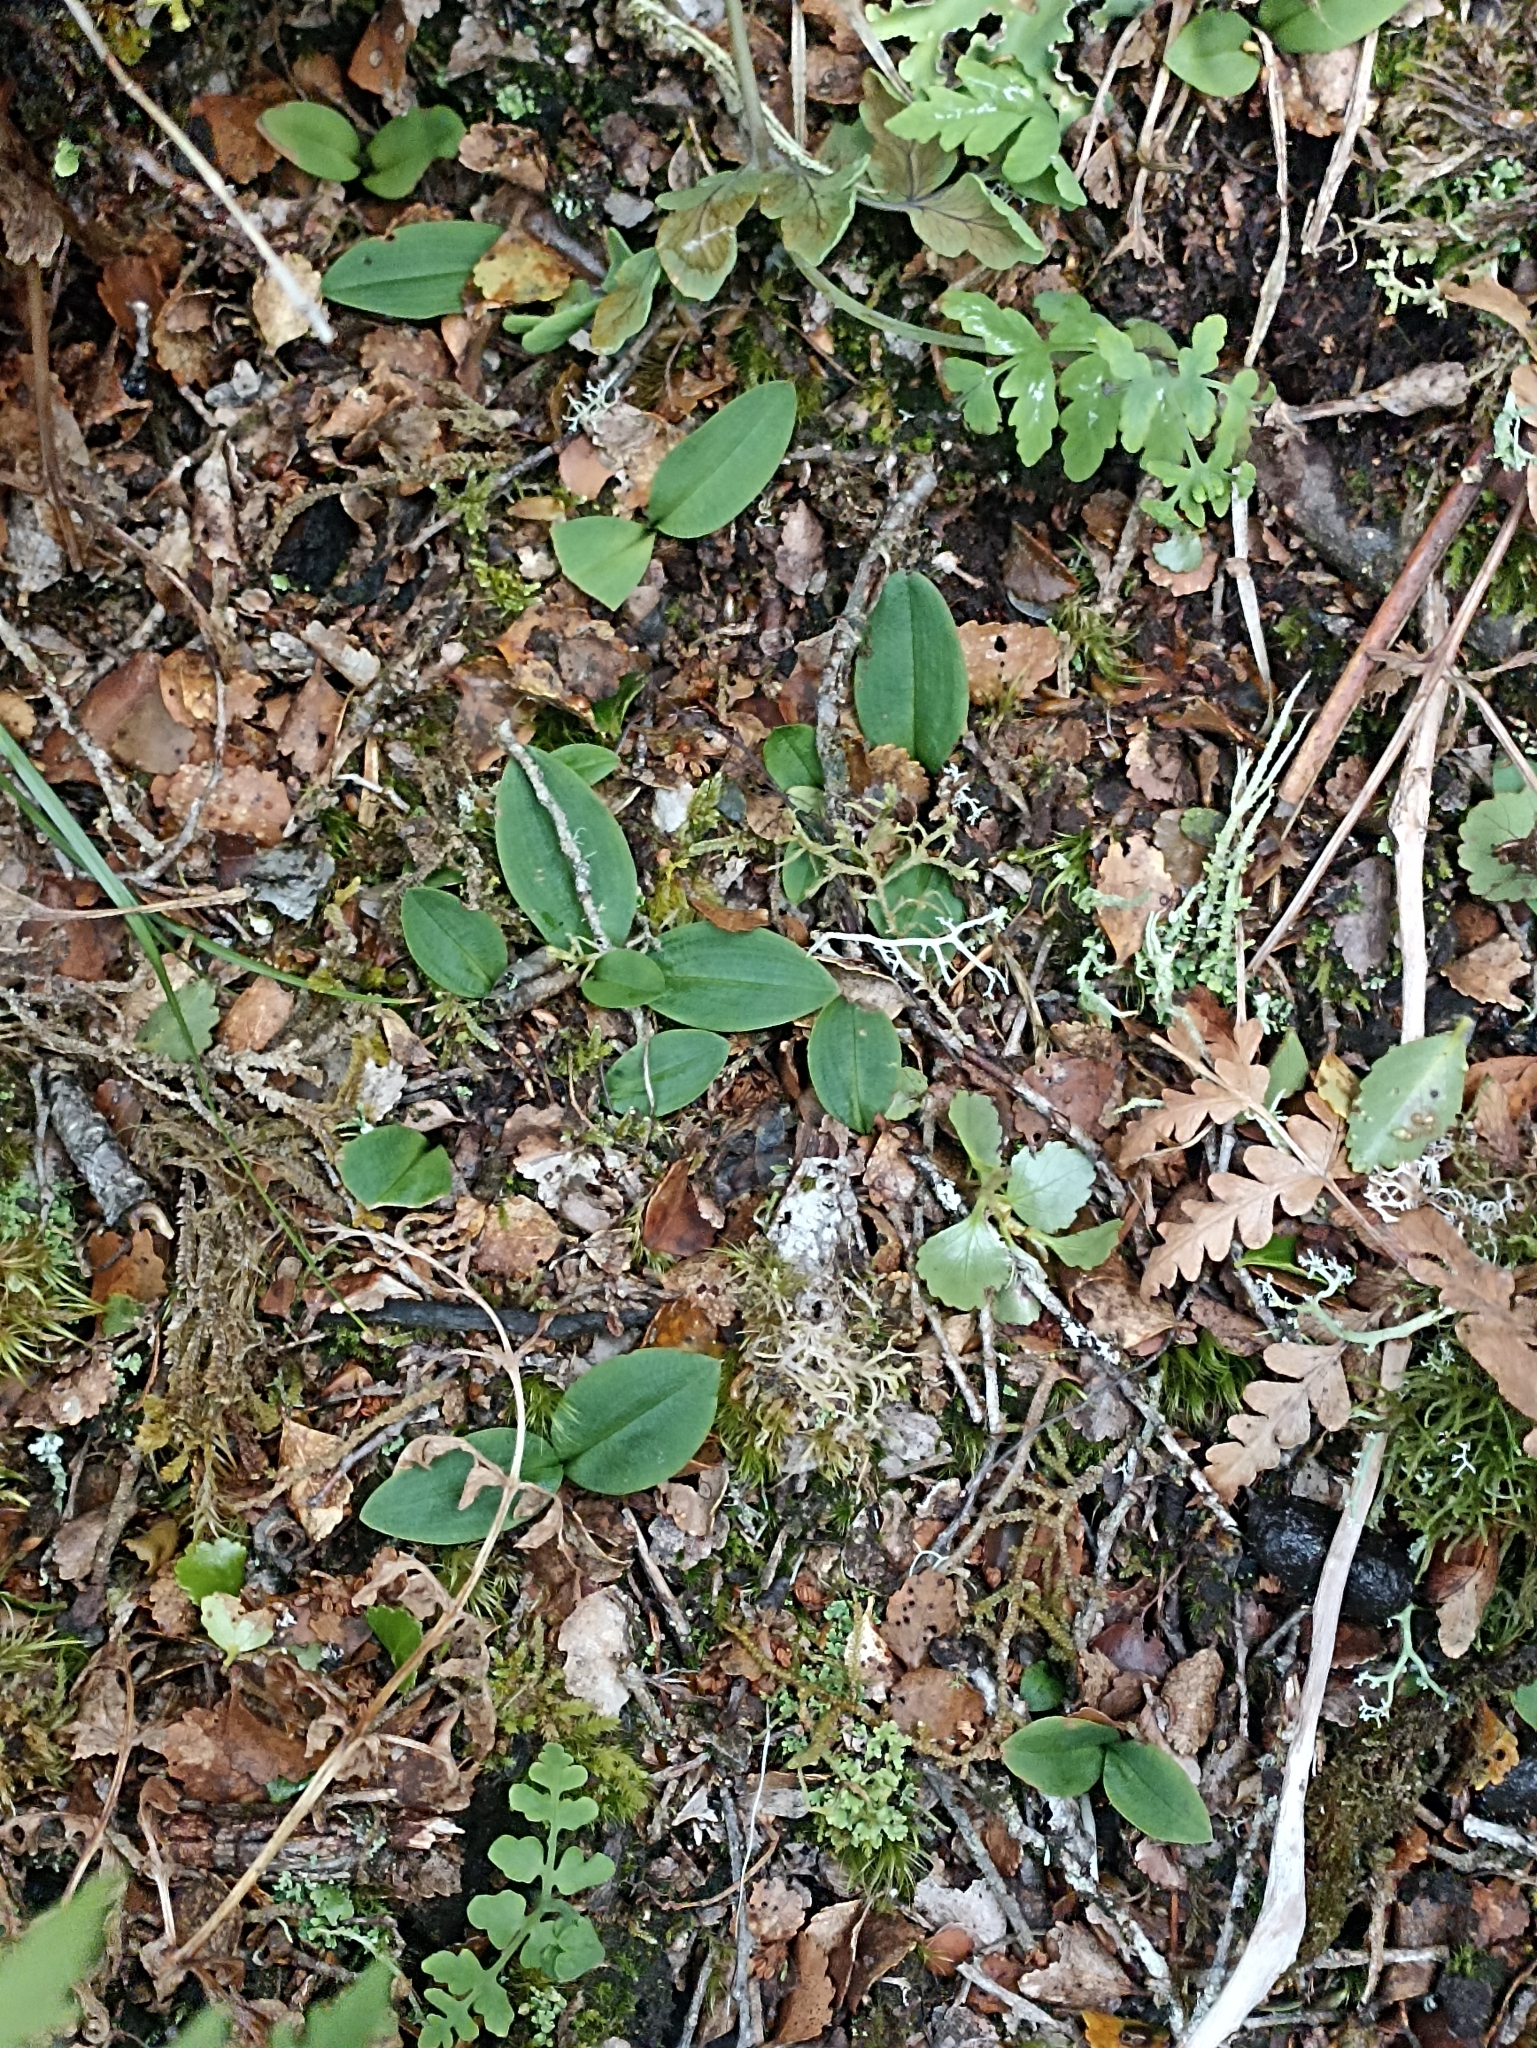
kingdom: Plantae
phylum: Tracheophyta
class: Liliopsida
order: Asparagales
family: Orchidaceae
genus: Chiloglottis
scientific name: Chiloglottis cornuta
